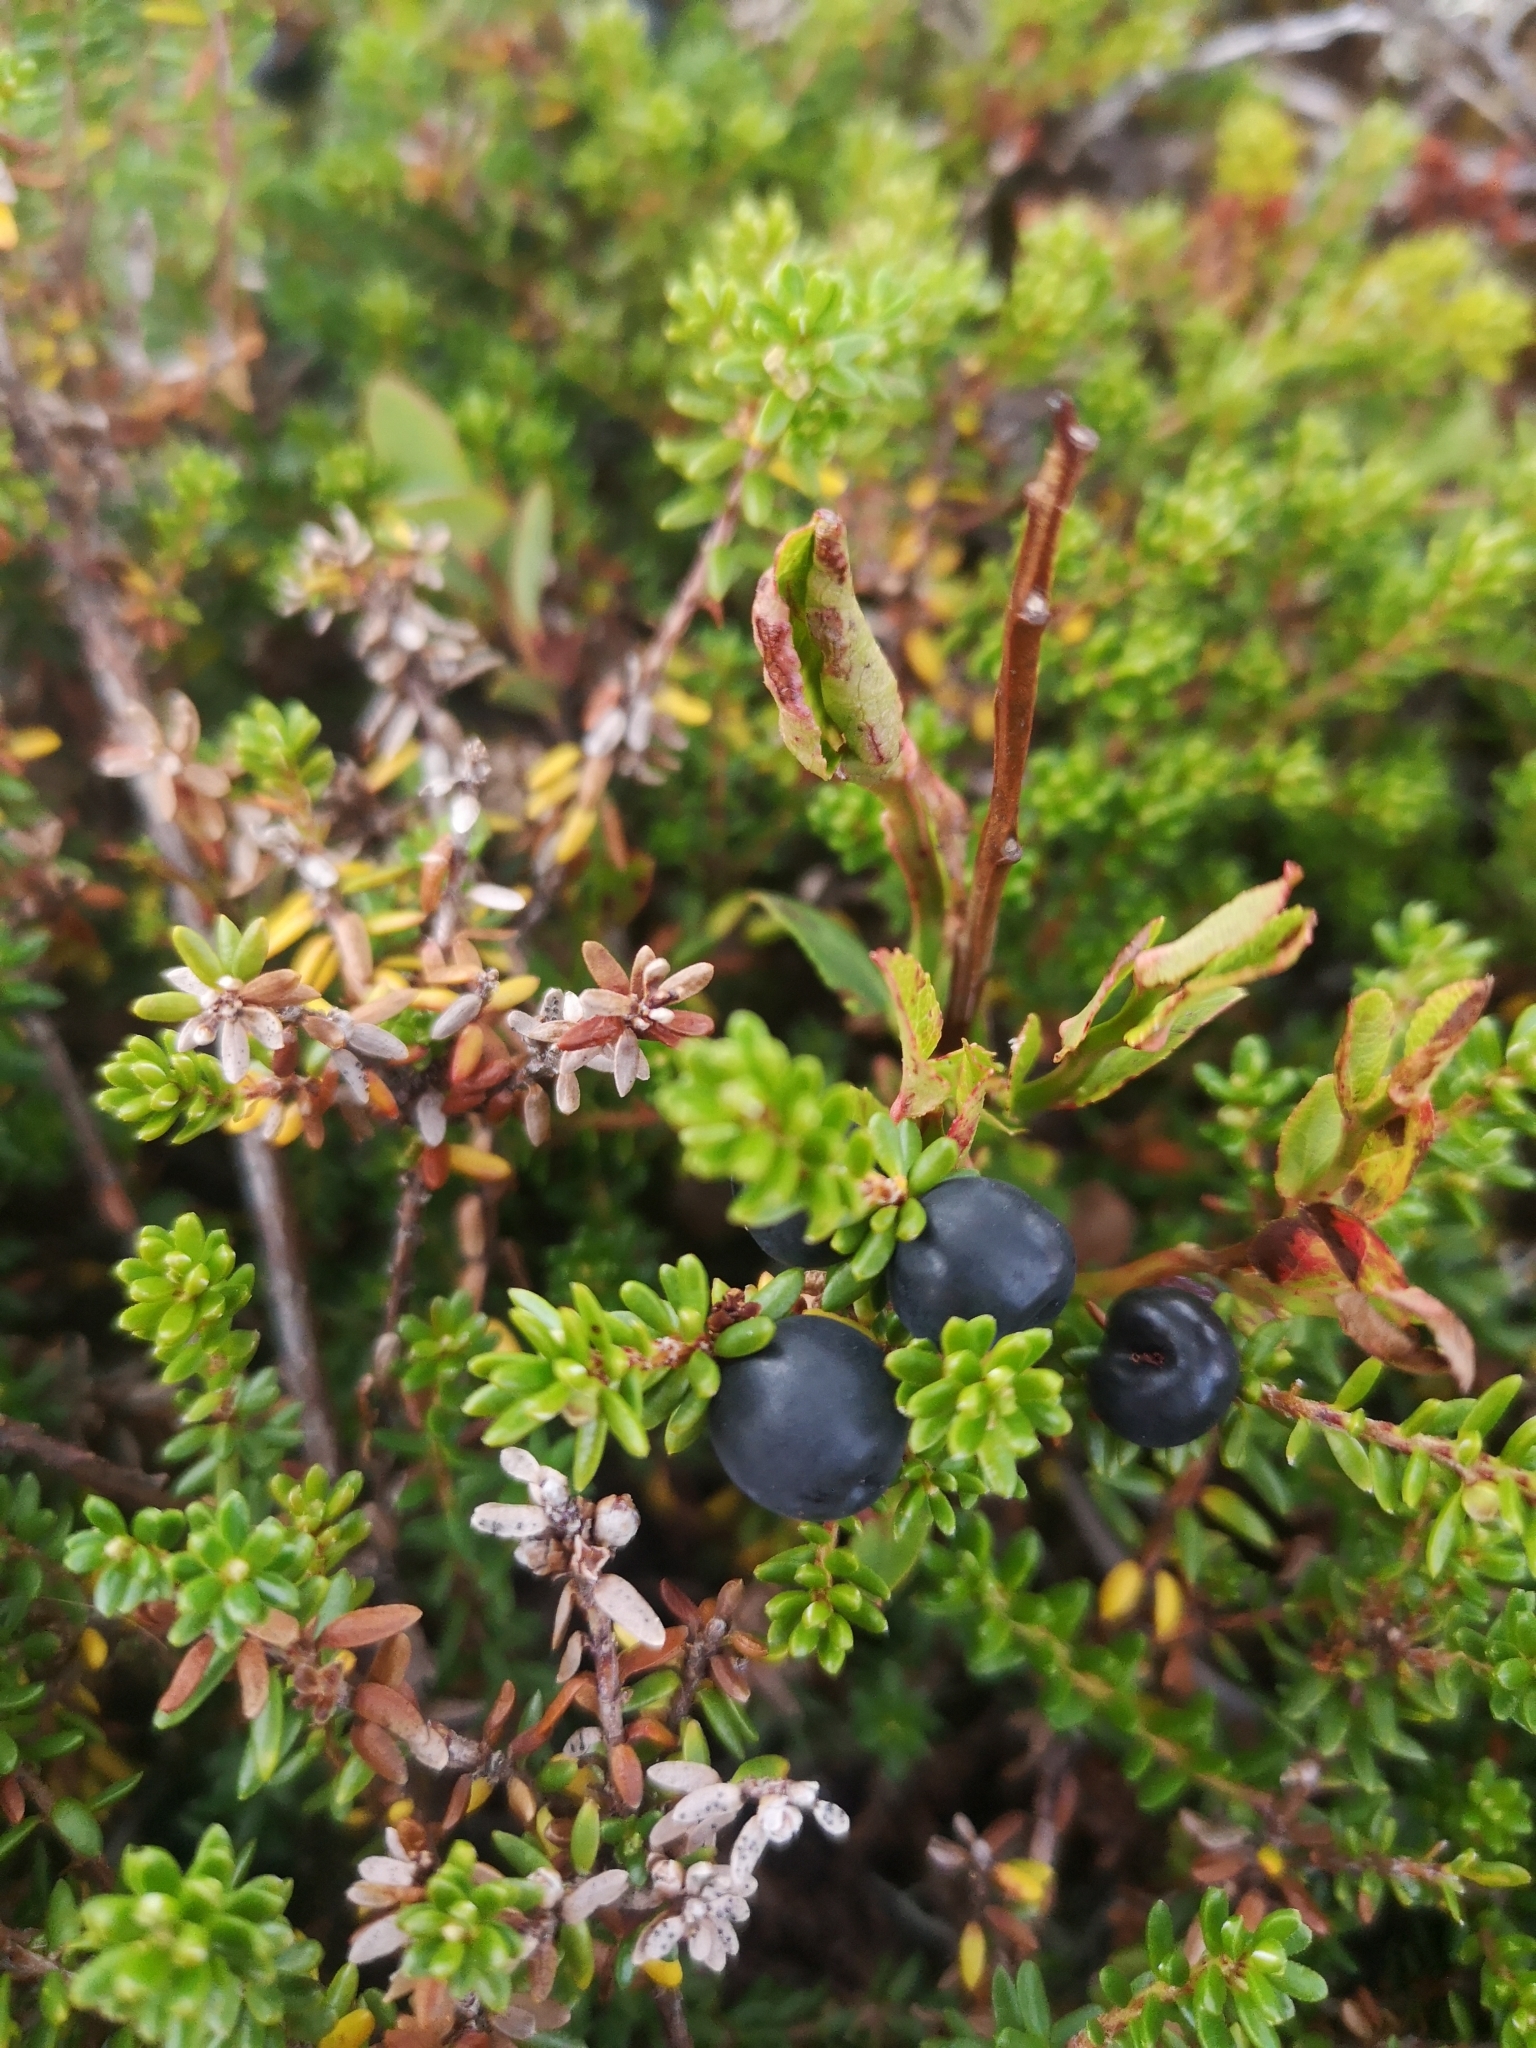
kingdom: Plantae
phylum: Tracheophyta
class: Magnoliopsida
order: Ericales
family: Ericaceae
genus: Empetrum
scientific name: Empetrum nigrum
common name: Black crowberry
